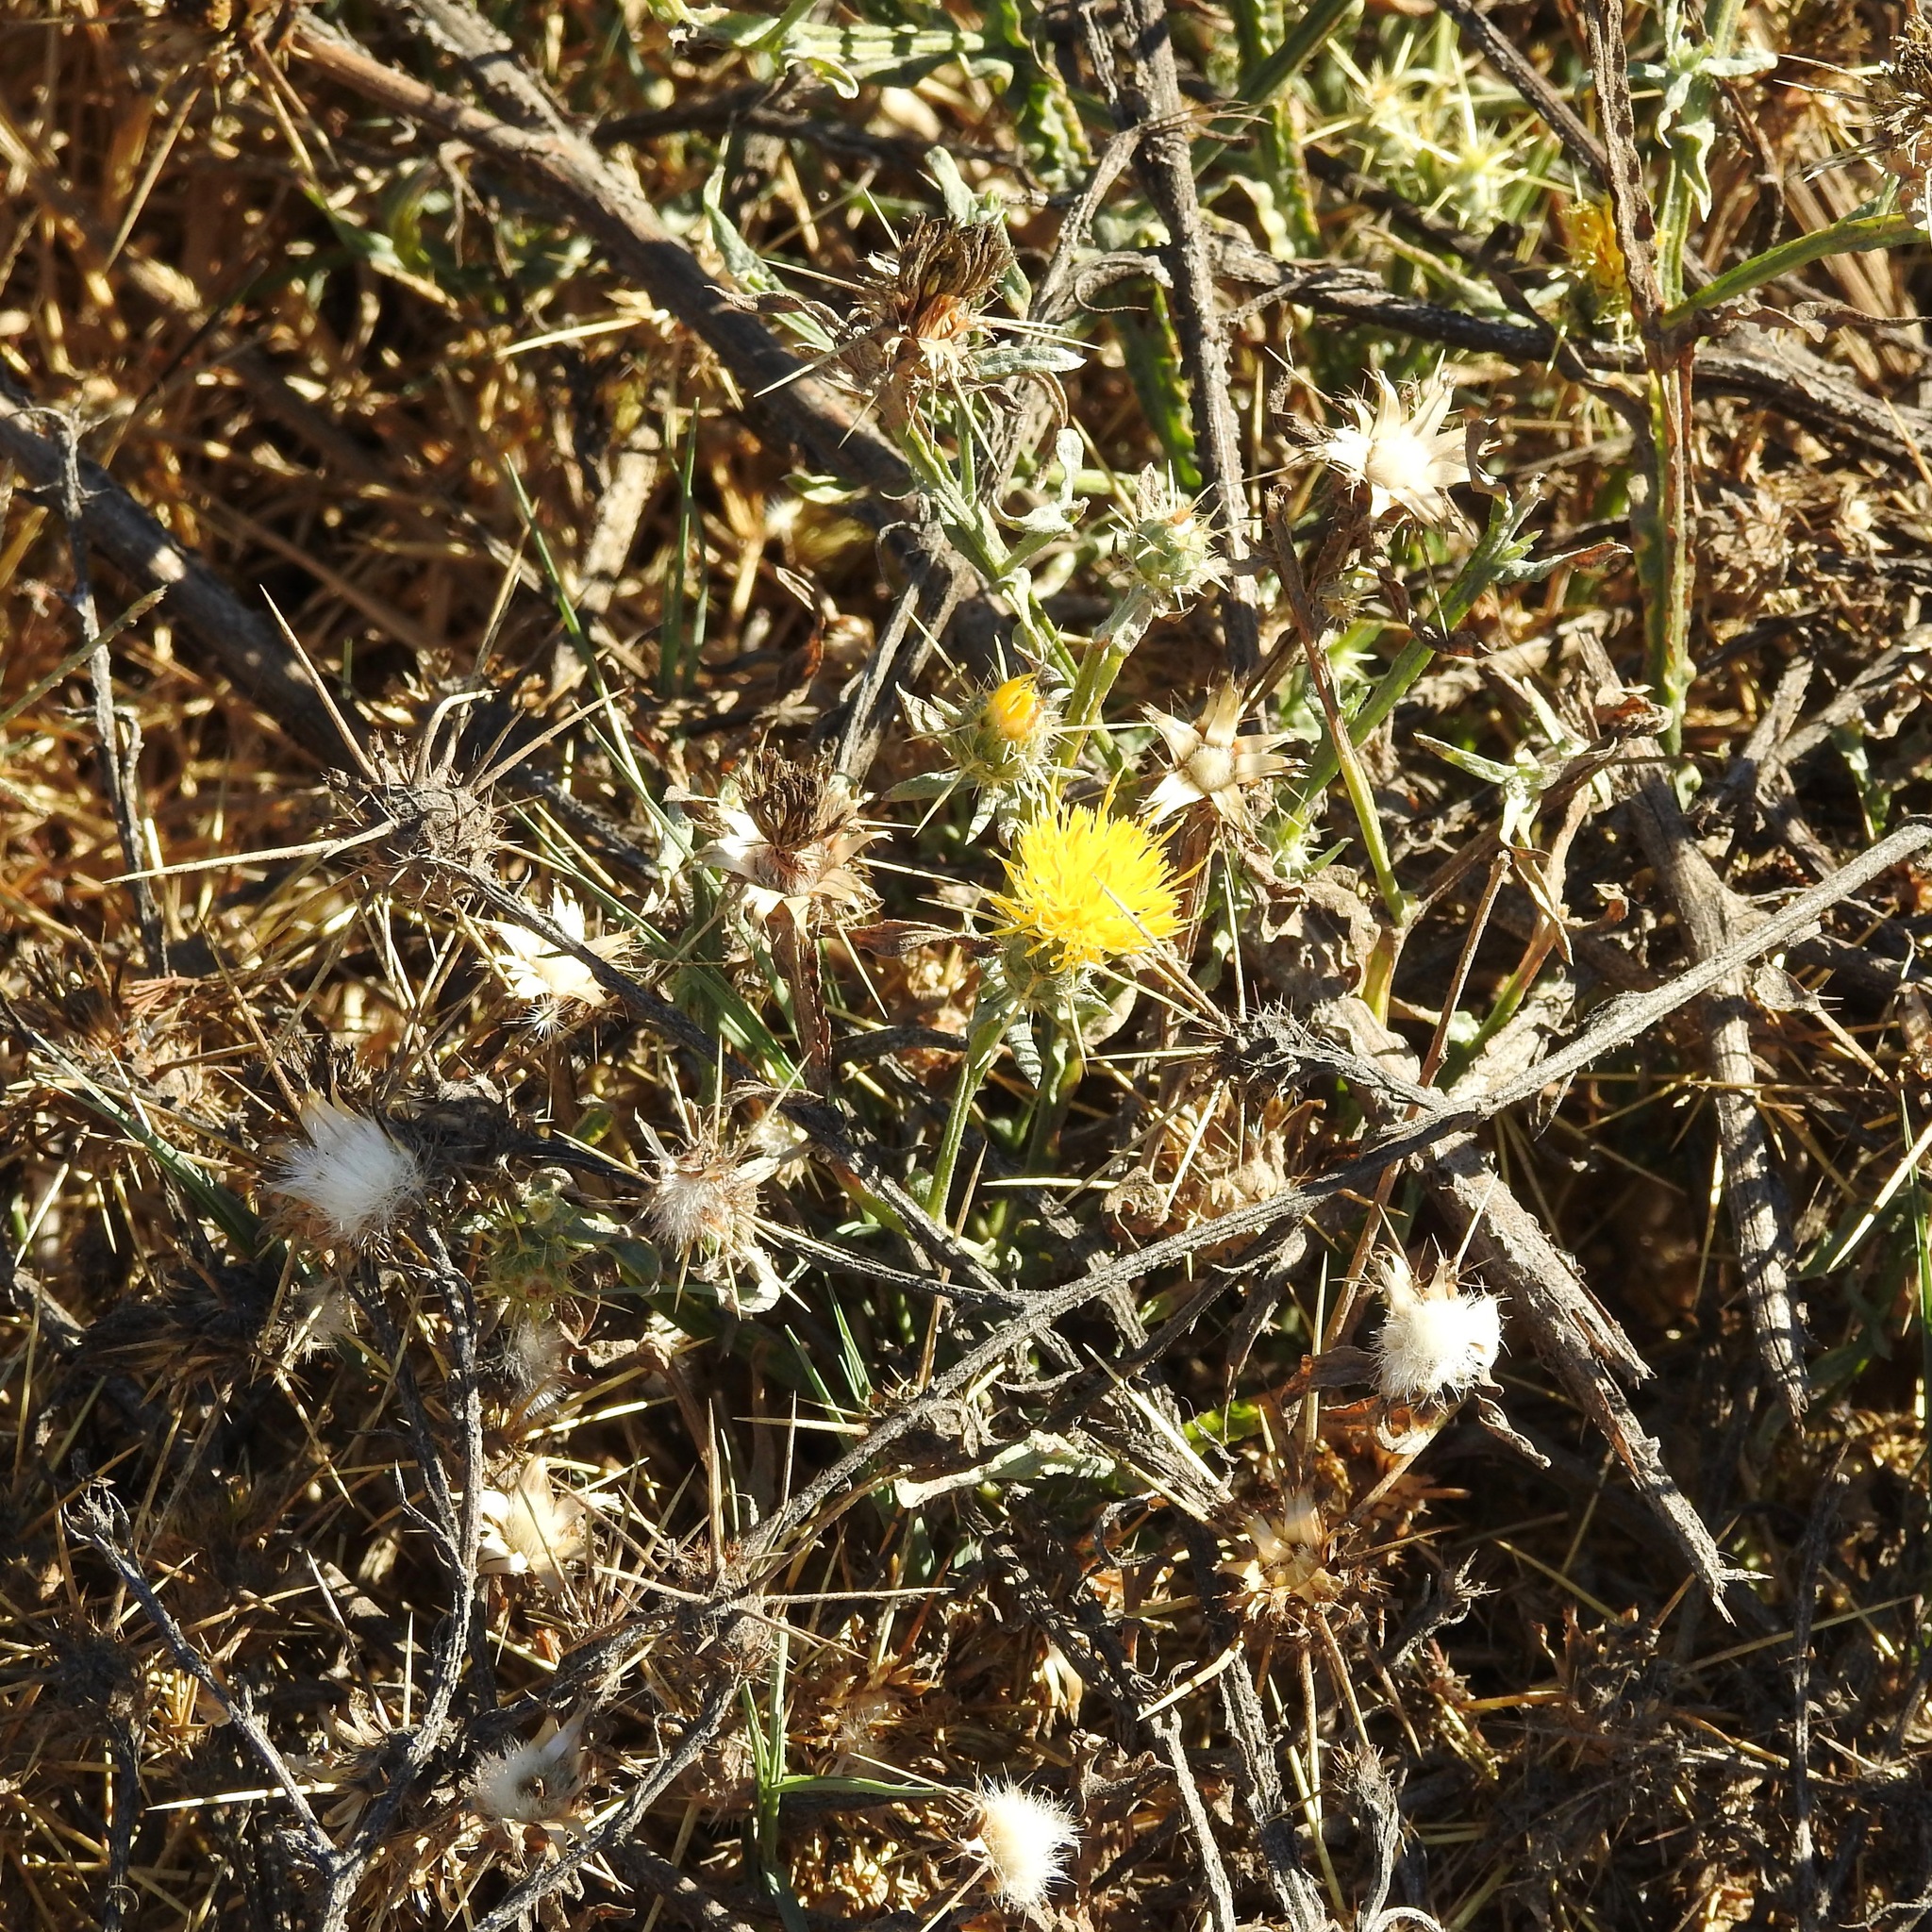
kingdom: Plantae
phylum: Tracheophyta
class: Magnoliopsida
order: Asterales
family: Asteraceae
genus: Centaurea
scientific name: Centaurea solstitialis
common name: Yellow star-thistle
